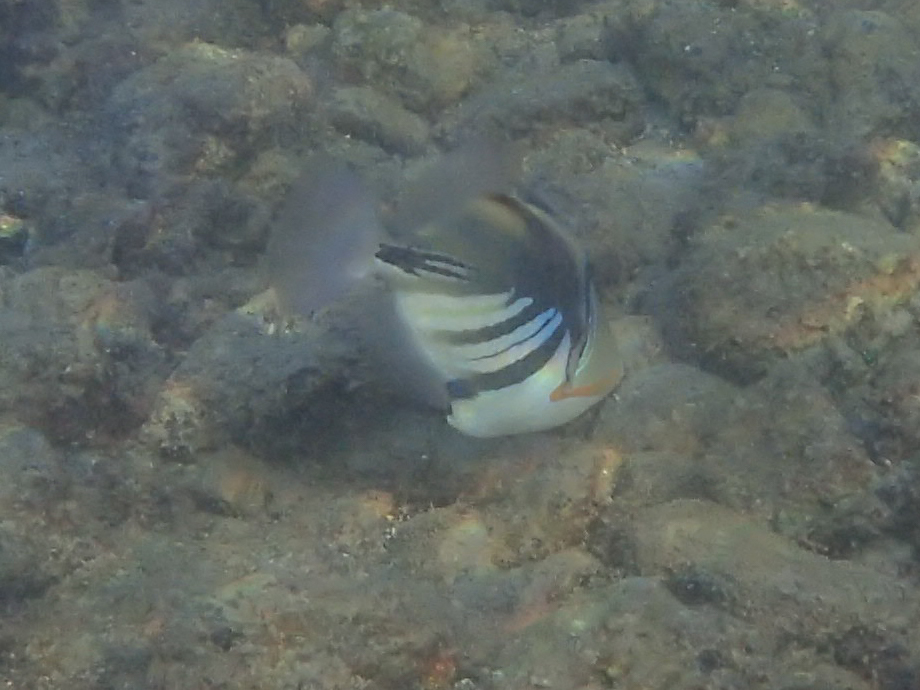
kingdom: Animalia
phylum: Chordata
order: Tetraodontiformes
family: Balistidae
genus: Rhinecanthus
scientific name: Rhinecanthus aculeatus
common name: White-banded triggerfish
